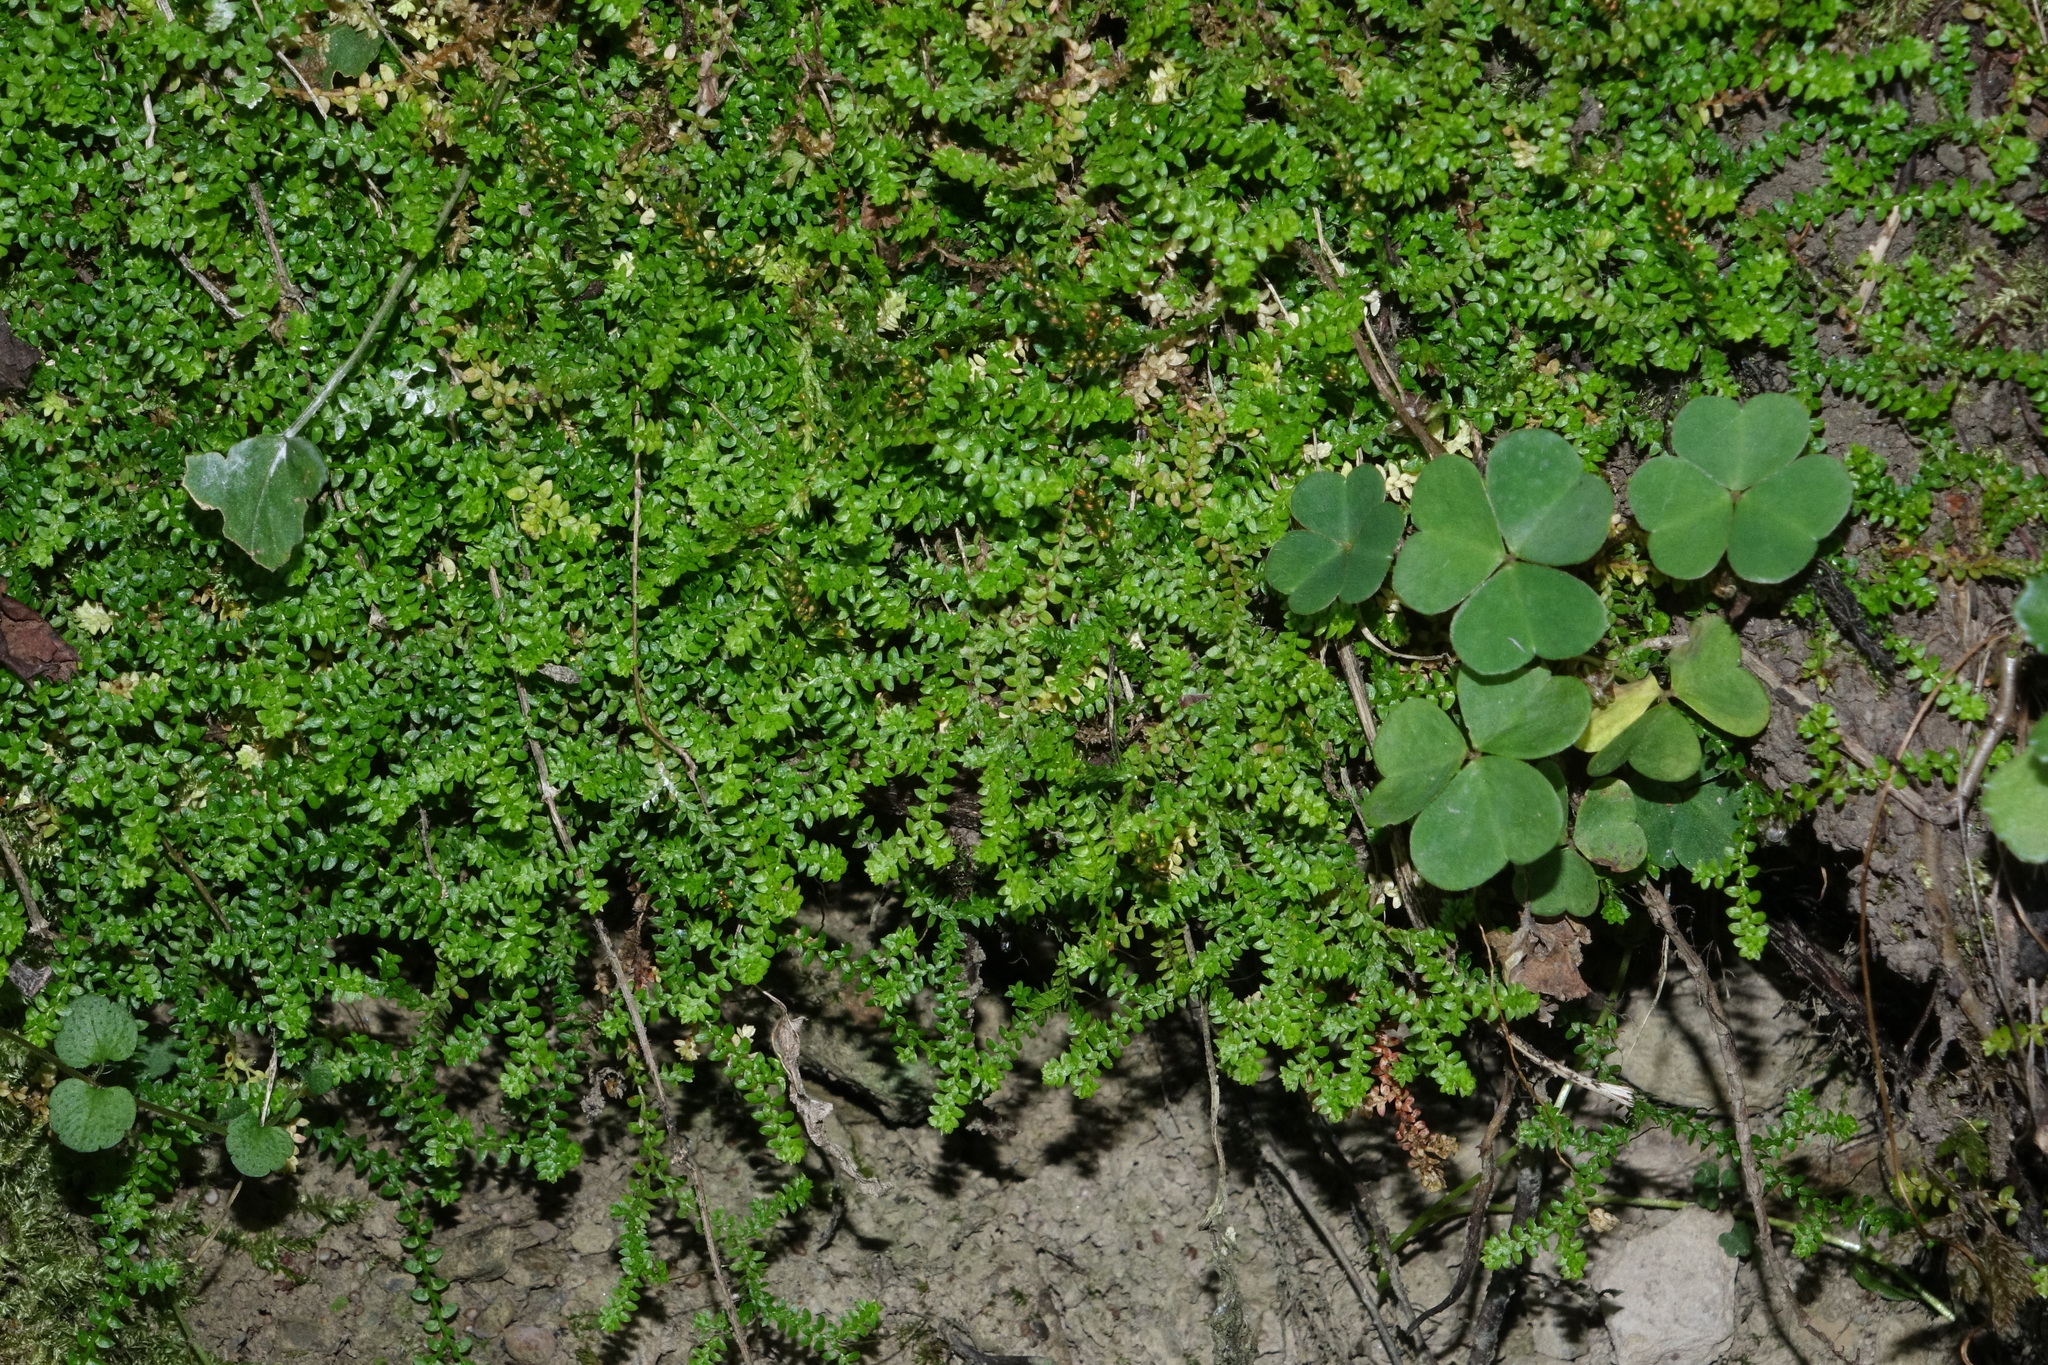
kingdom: Plantae
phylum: Tracheophyta
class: Lycopodiopsida
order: Selaginellales
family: Selaginellaceae
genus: Selaginella
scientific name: Selaginella helvetica
